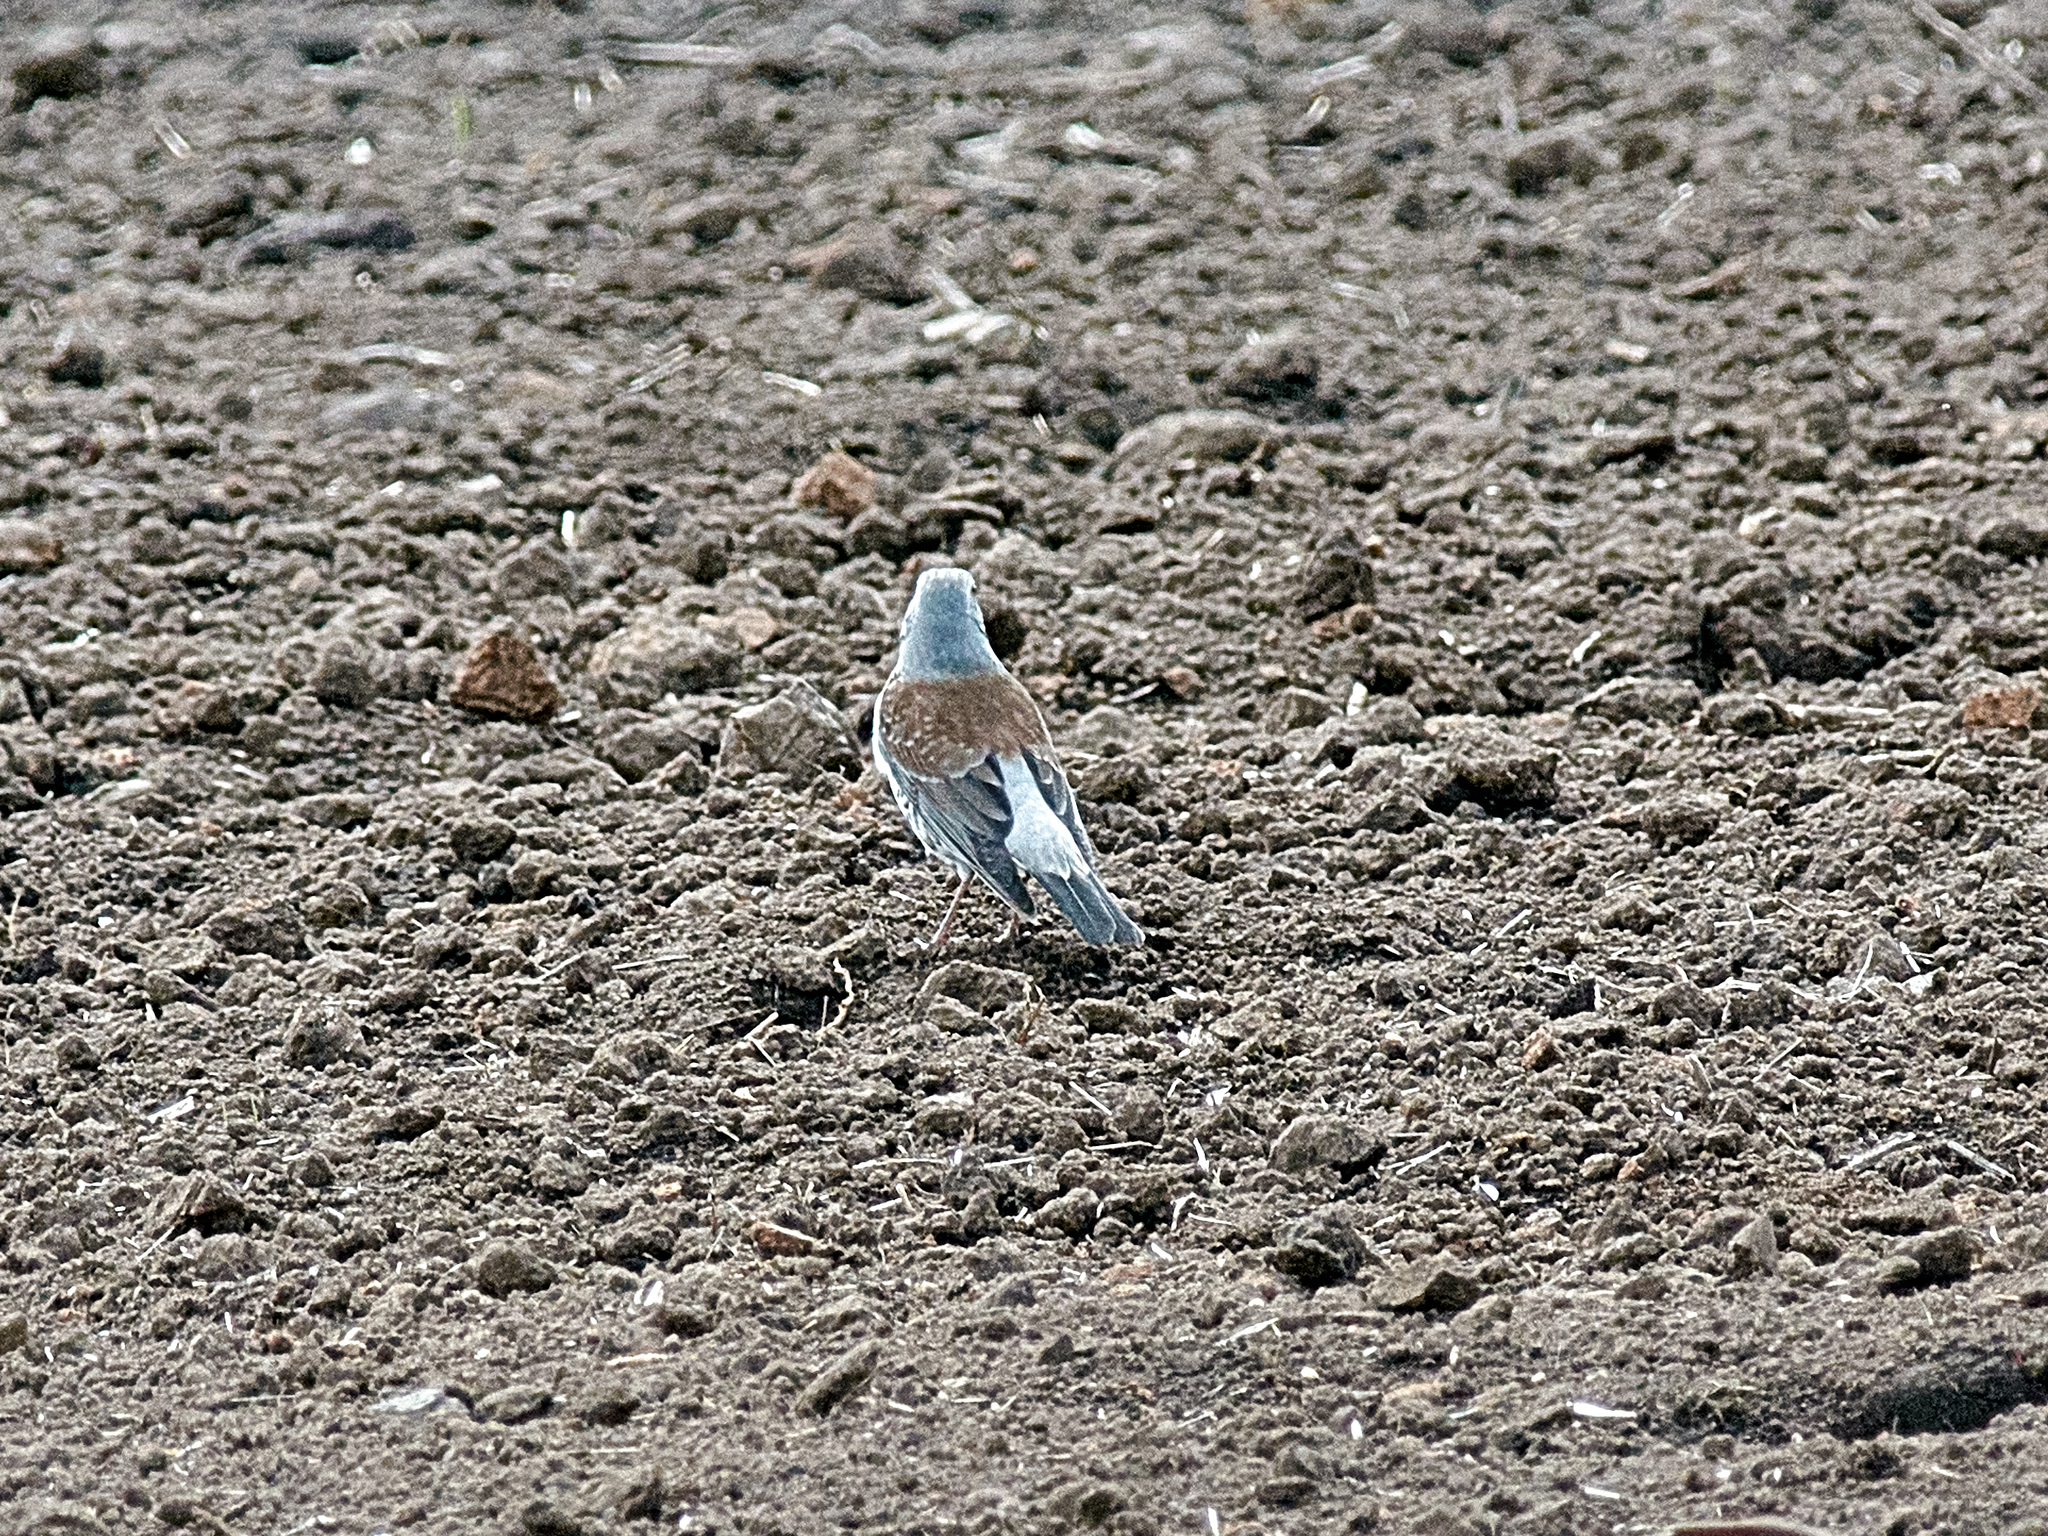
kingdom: Animalia
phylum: Chordata
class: Aves
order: Passeriformes
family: Turdidae
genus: Turdus
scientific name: Turdus pilaris
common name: Fieldfare
